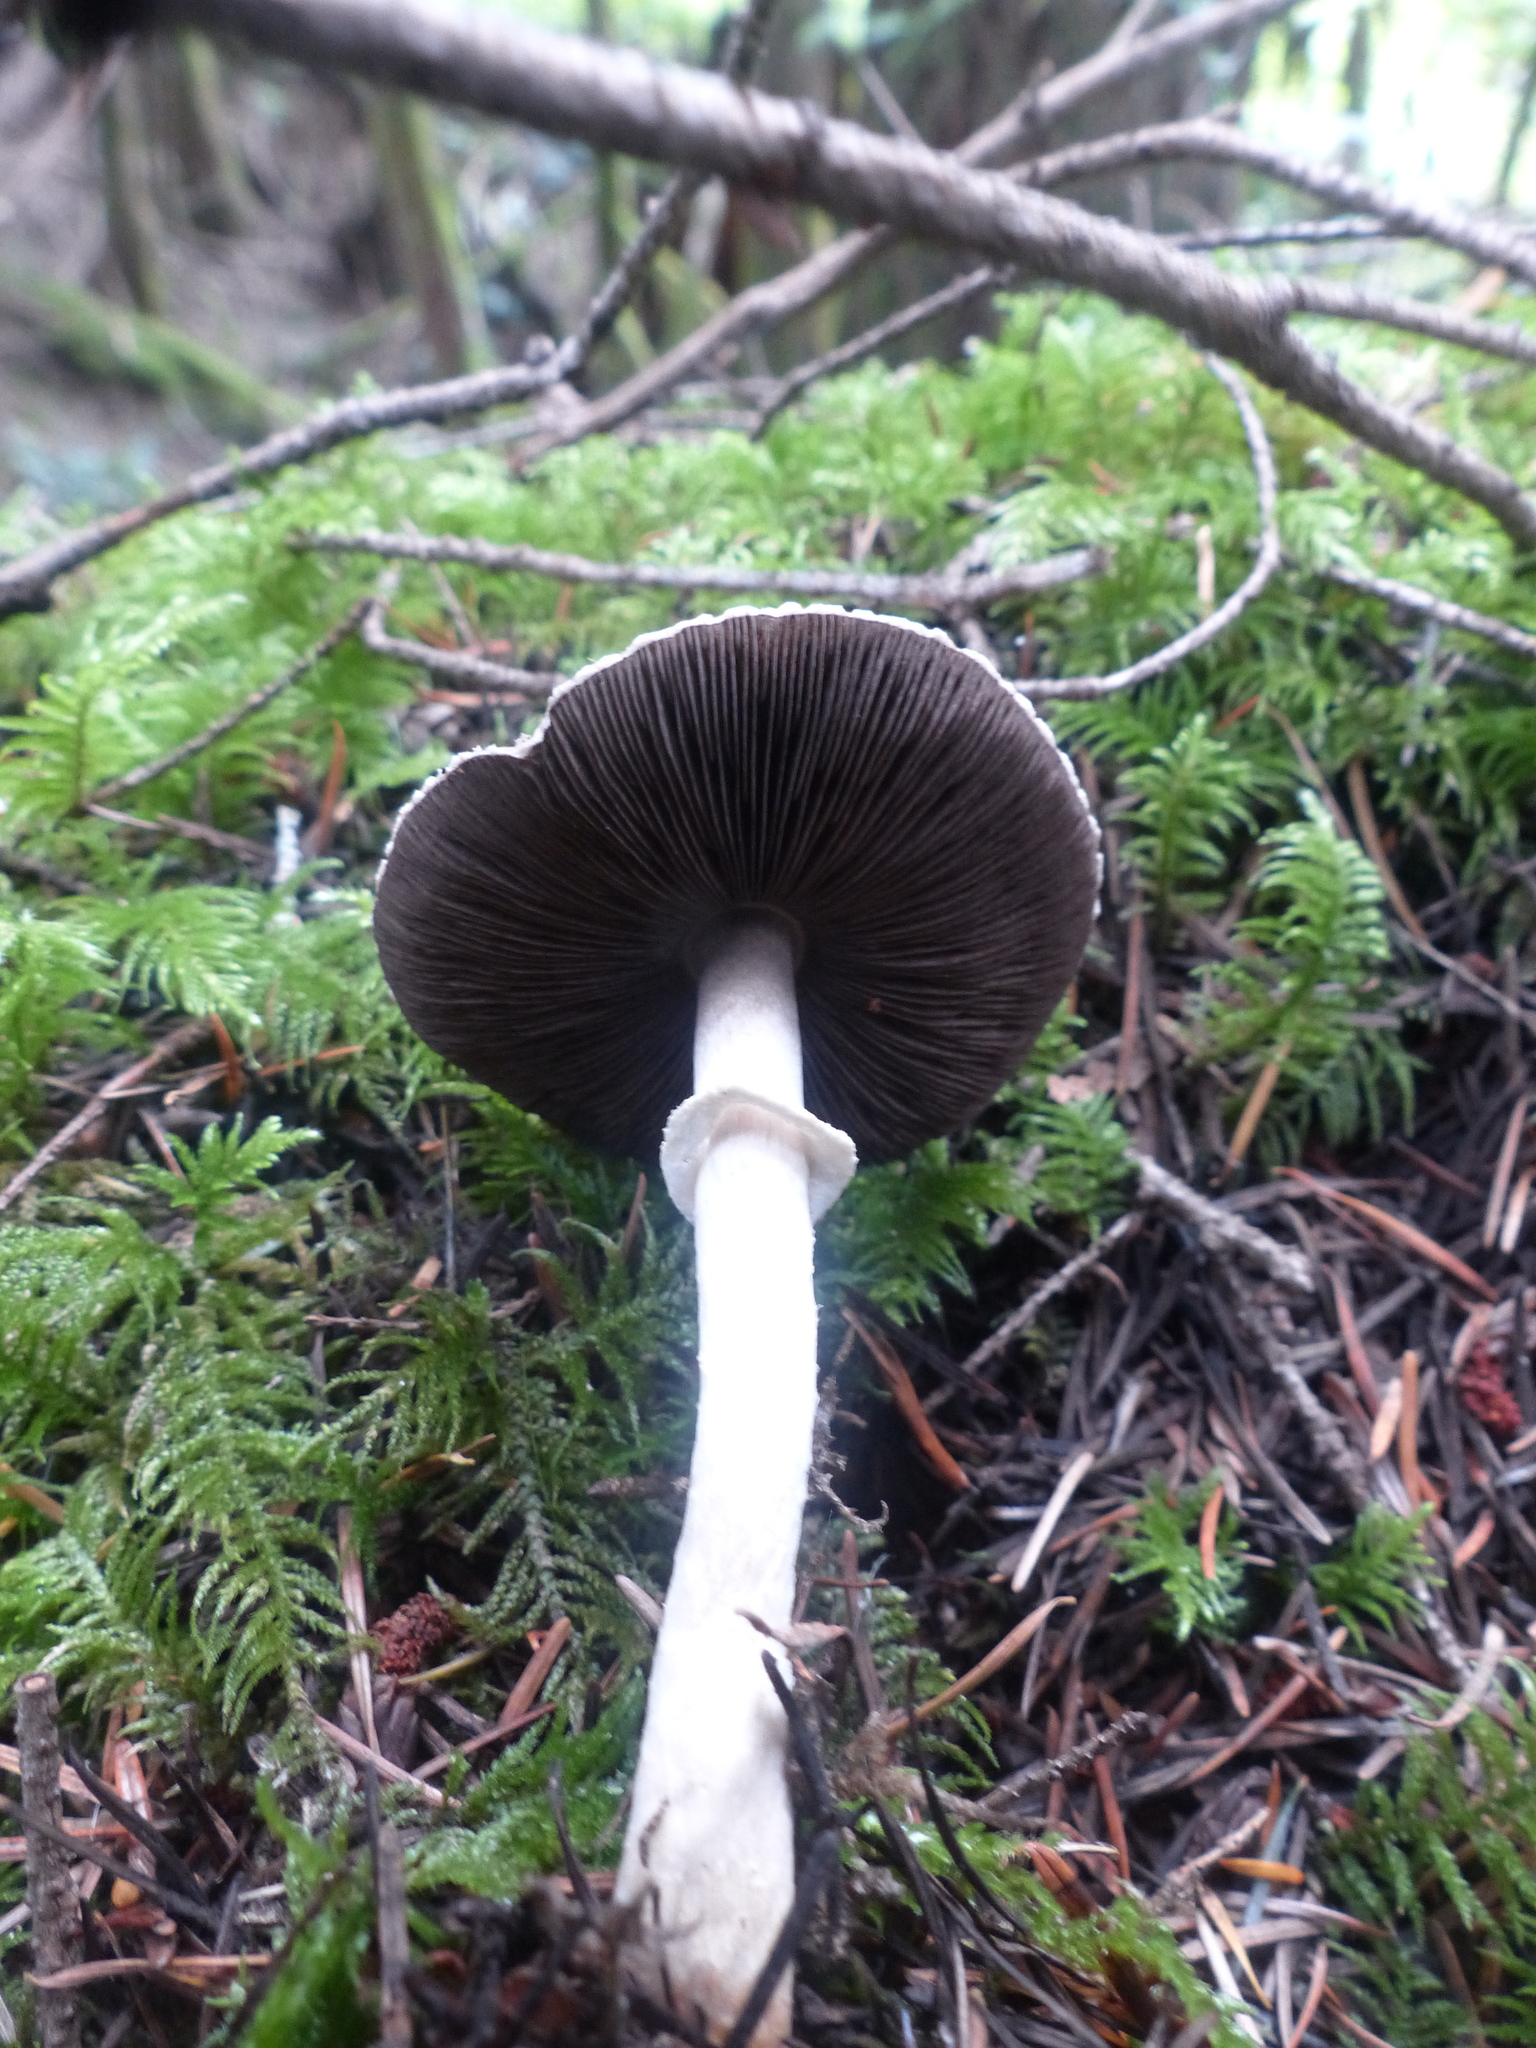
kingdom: Fungi
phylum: Basidiomycota
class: Agaricomycetes
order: Agaricales
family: Agaricaceae
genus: Agaricus
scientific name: Agaricus subrutilescens
